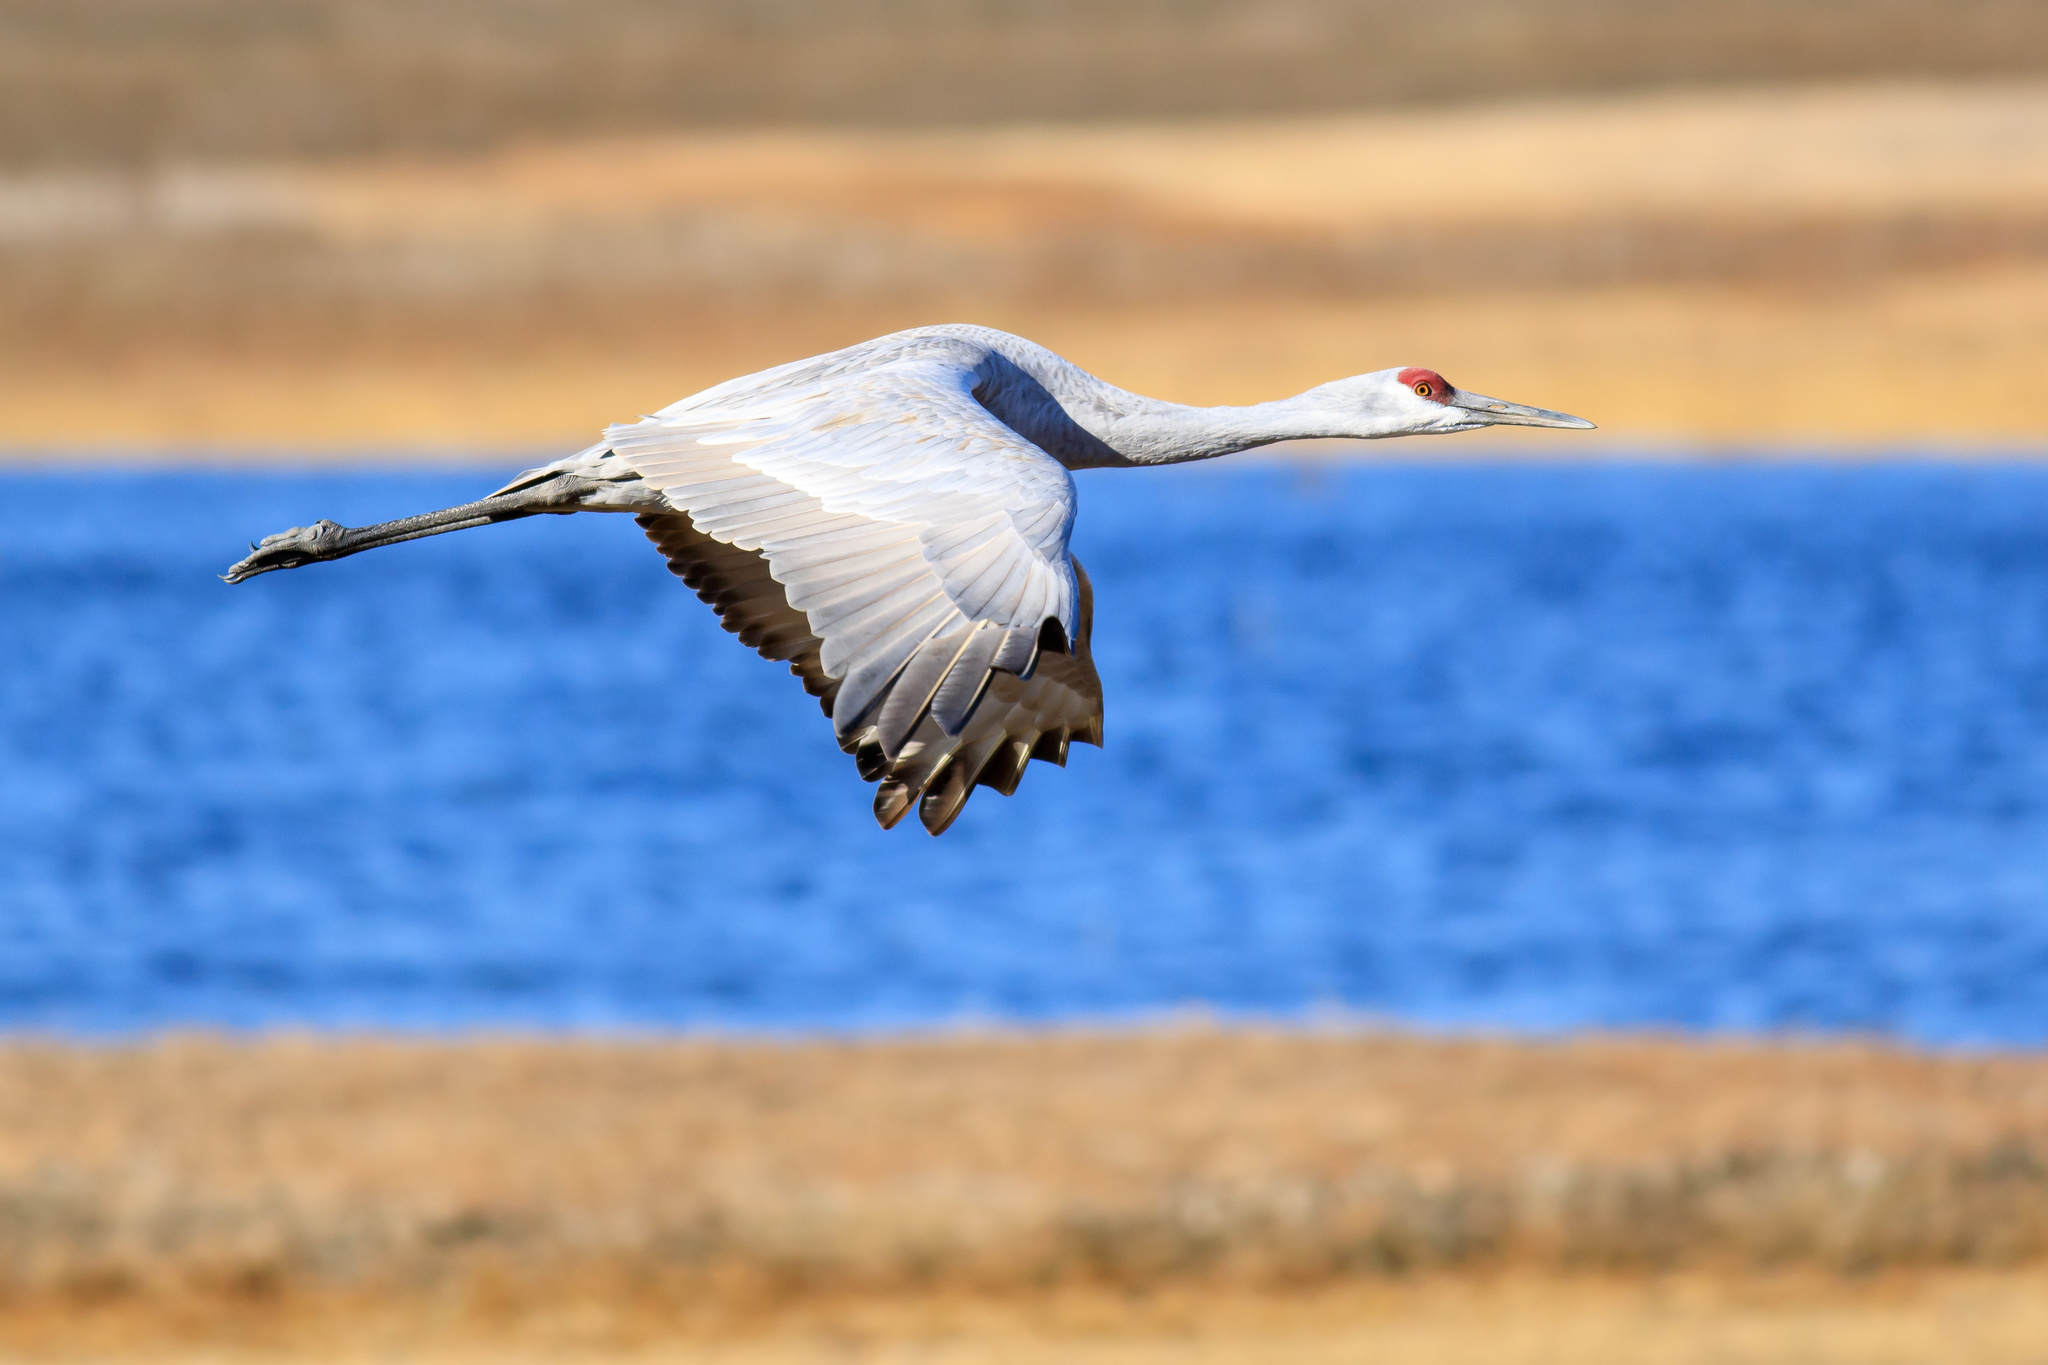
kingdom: Animalia
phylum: Chordata
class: Aves
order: Gruiformes
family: Gruidae
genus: Grus
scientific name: Grus canadensis
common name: Sandhill crane
